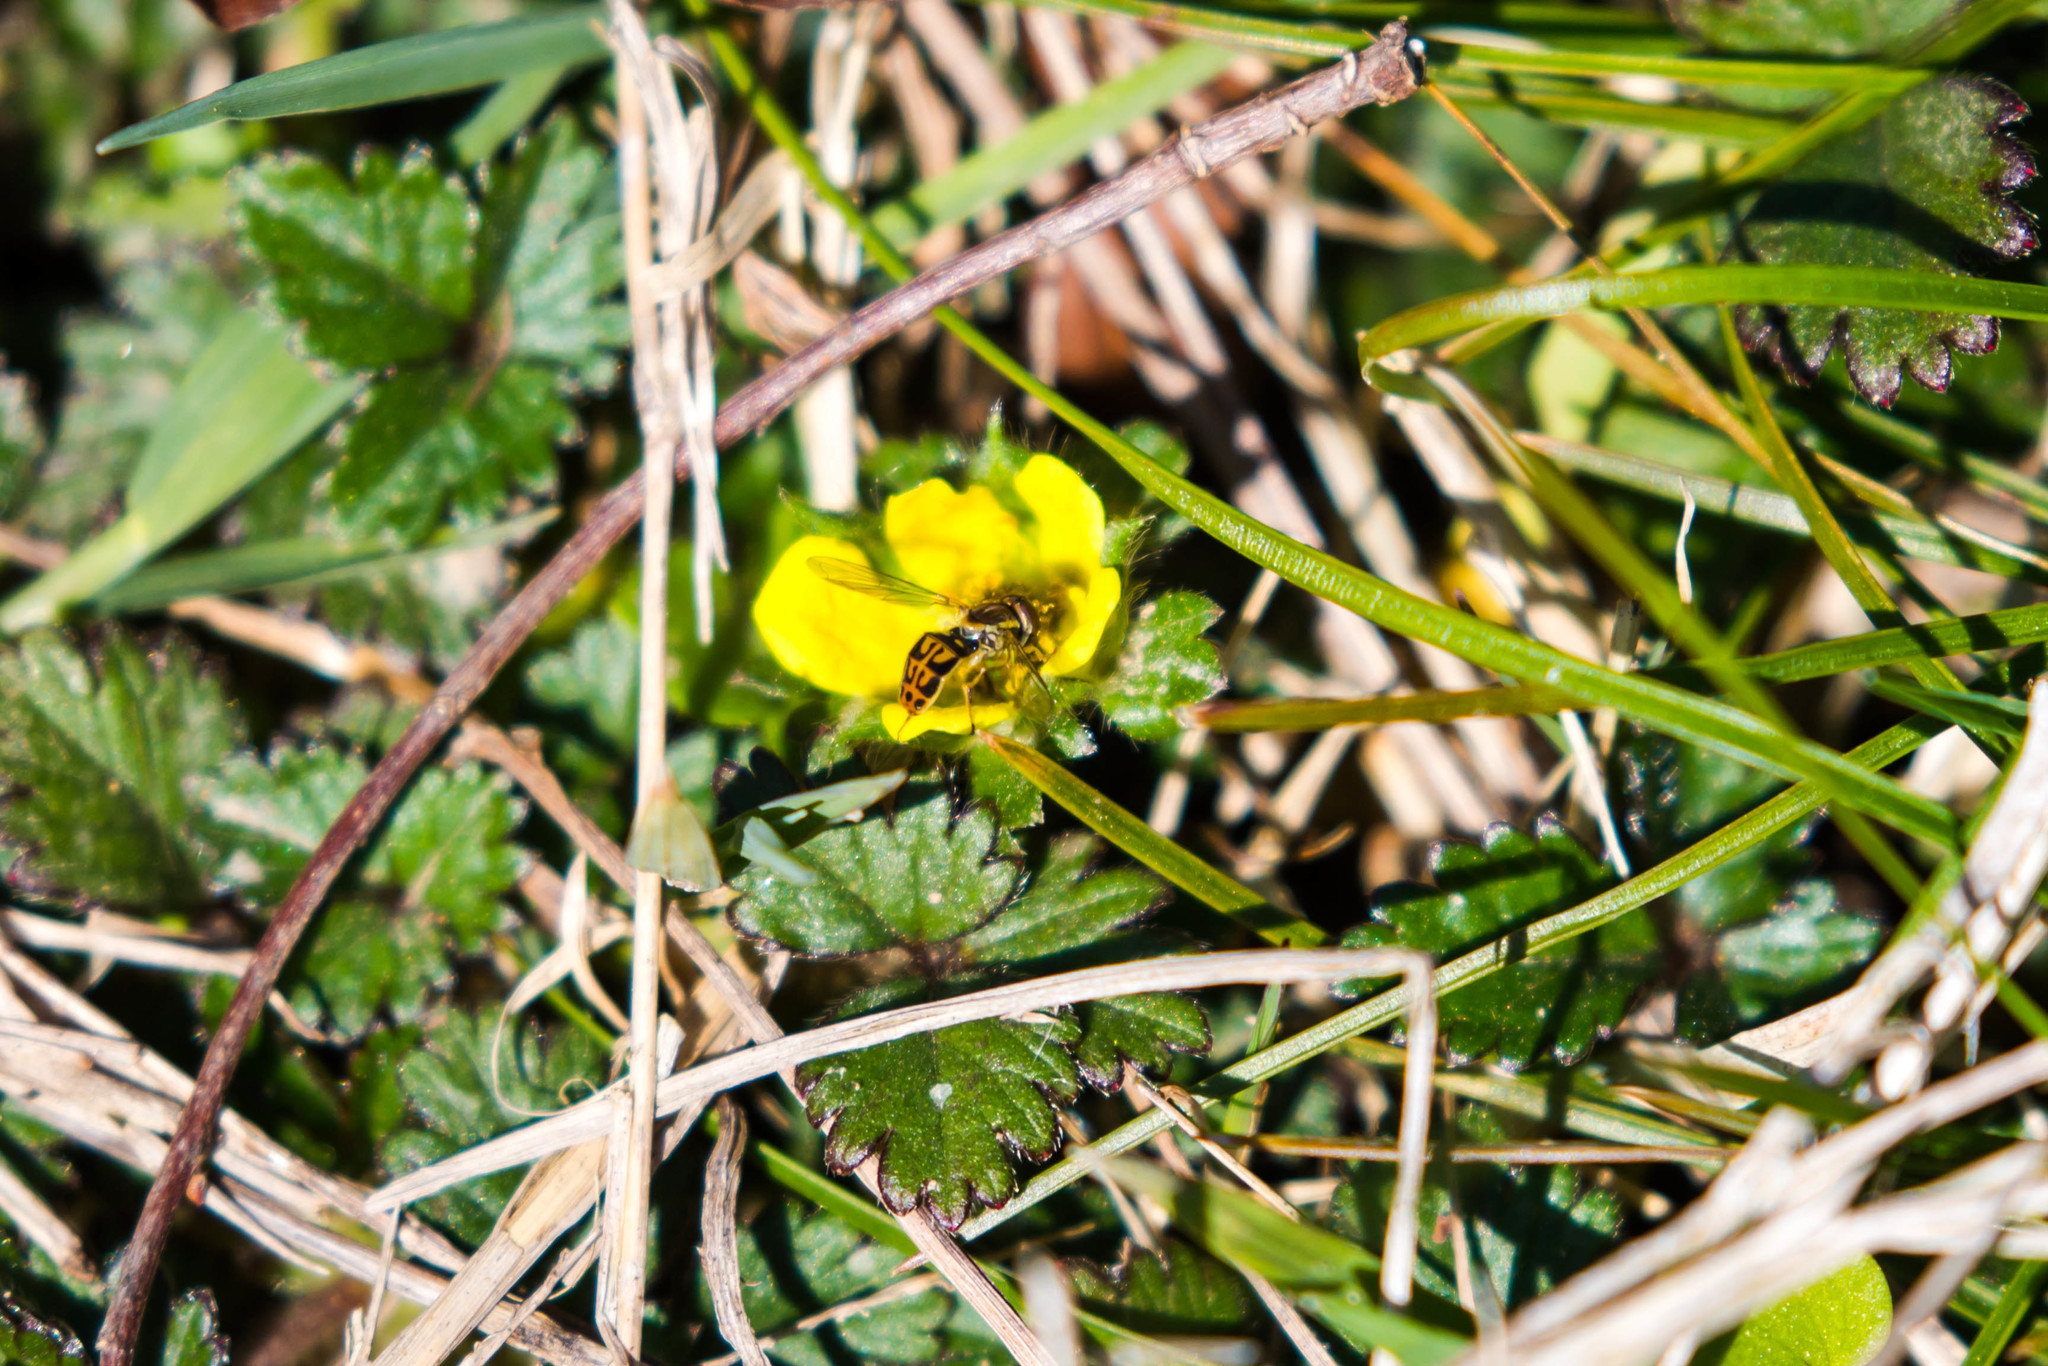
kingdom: Animalia
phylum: Arthropoda
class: Insecta
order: Diptera
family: Syrphidae
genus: Toxomerus
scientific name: Toxomerus marginatus
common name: Syrphid fly
